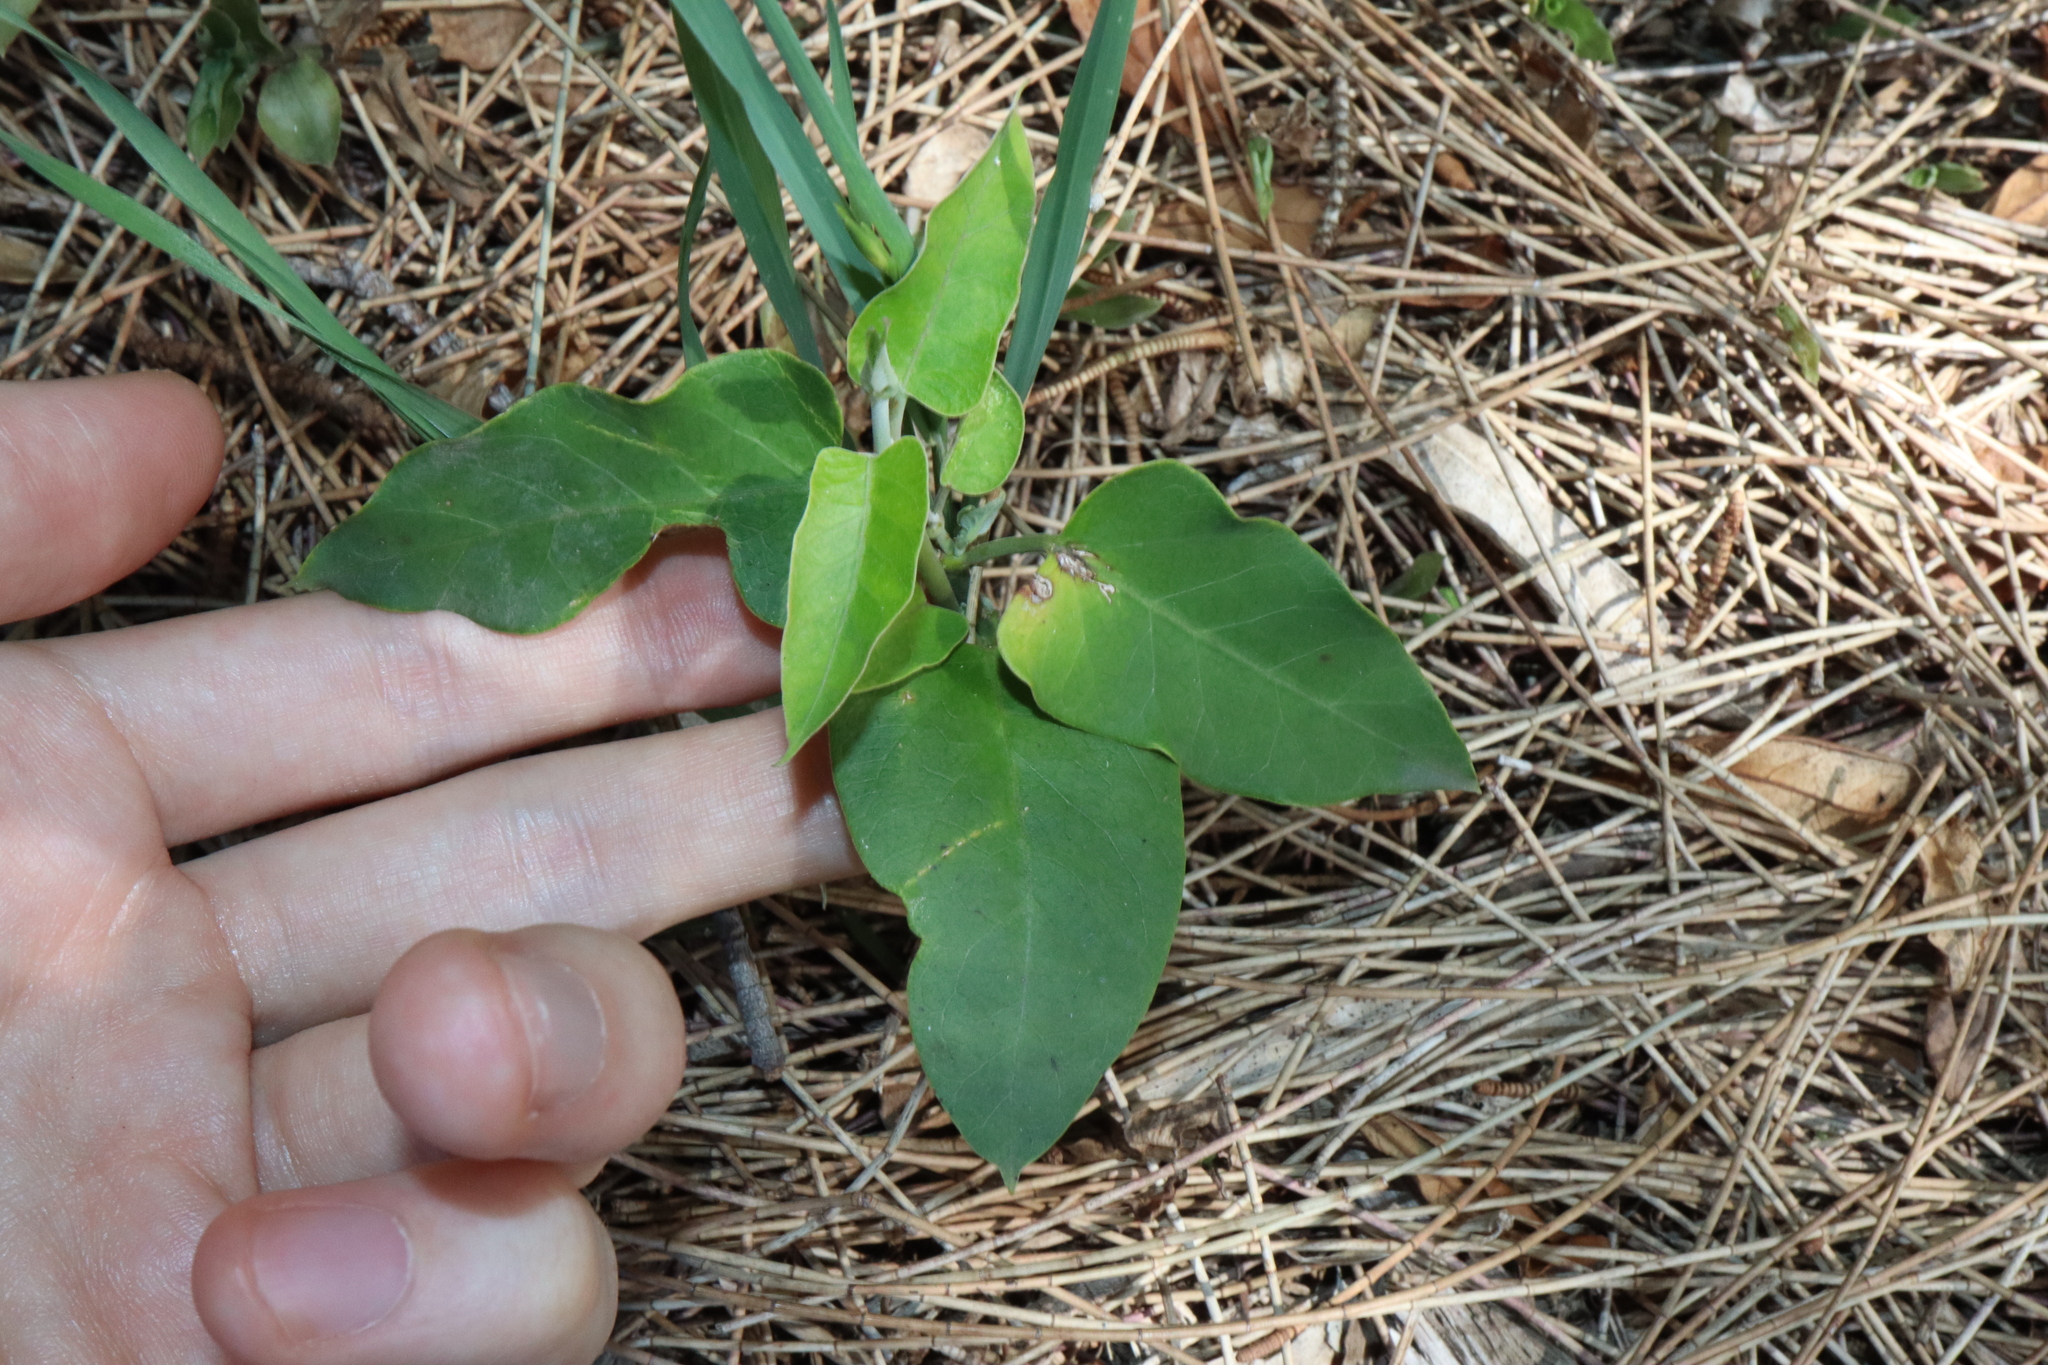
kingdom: Plantae
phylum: Tracheophyta
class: Magnoliopsida
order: Gentianales
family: Apocynaceae
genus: Araujia
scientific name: Araujia sericifera
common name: White bladderflower
